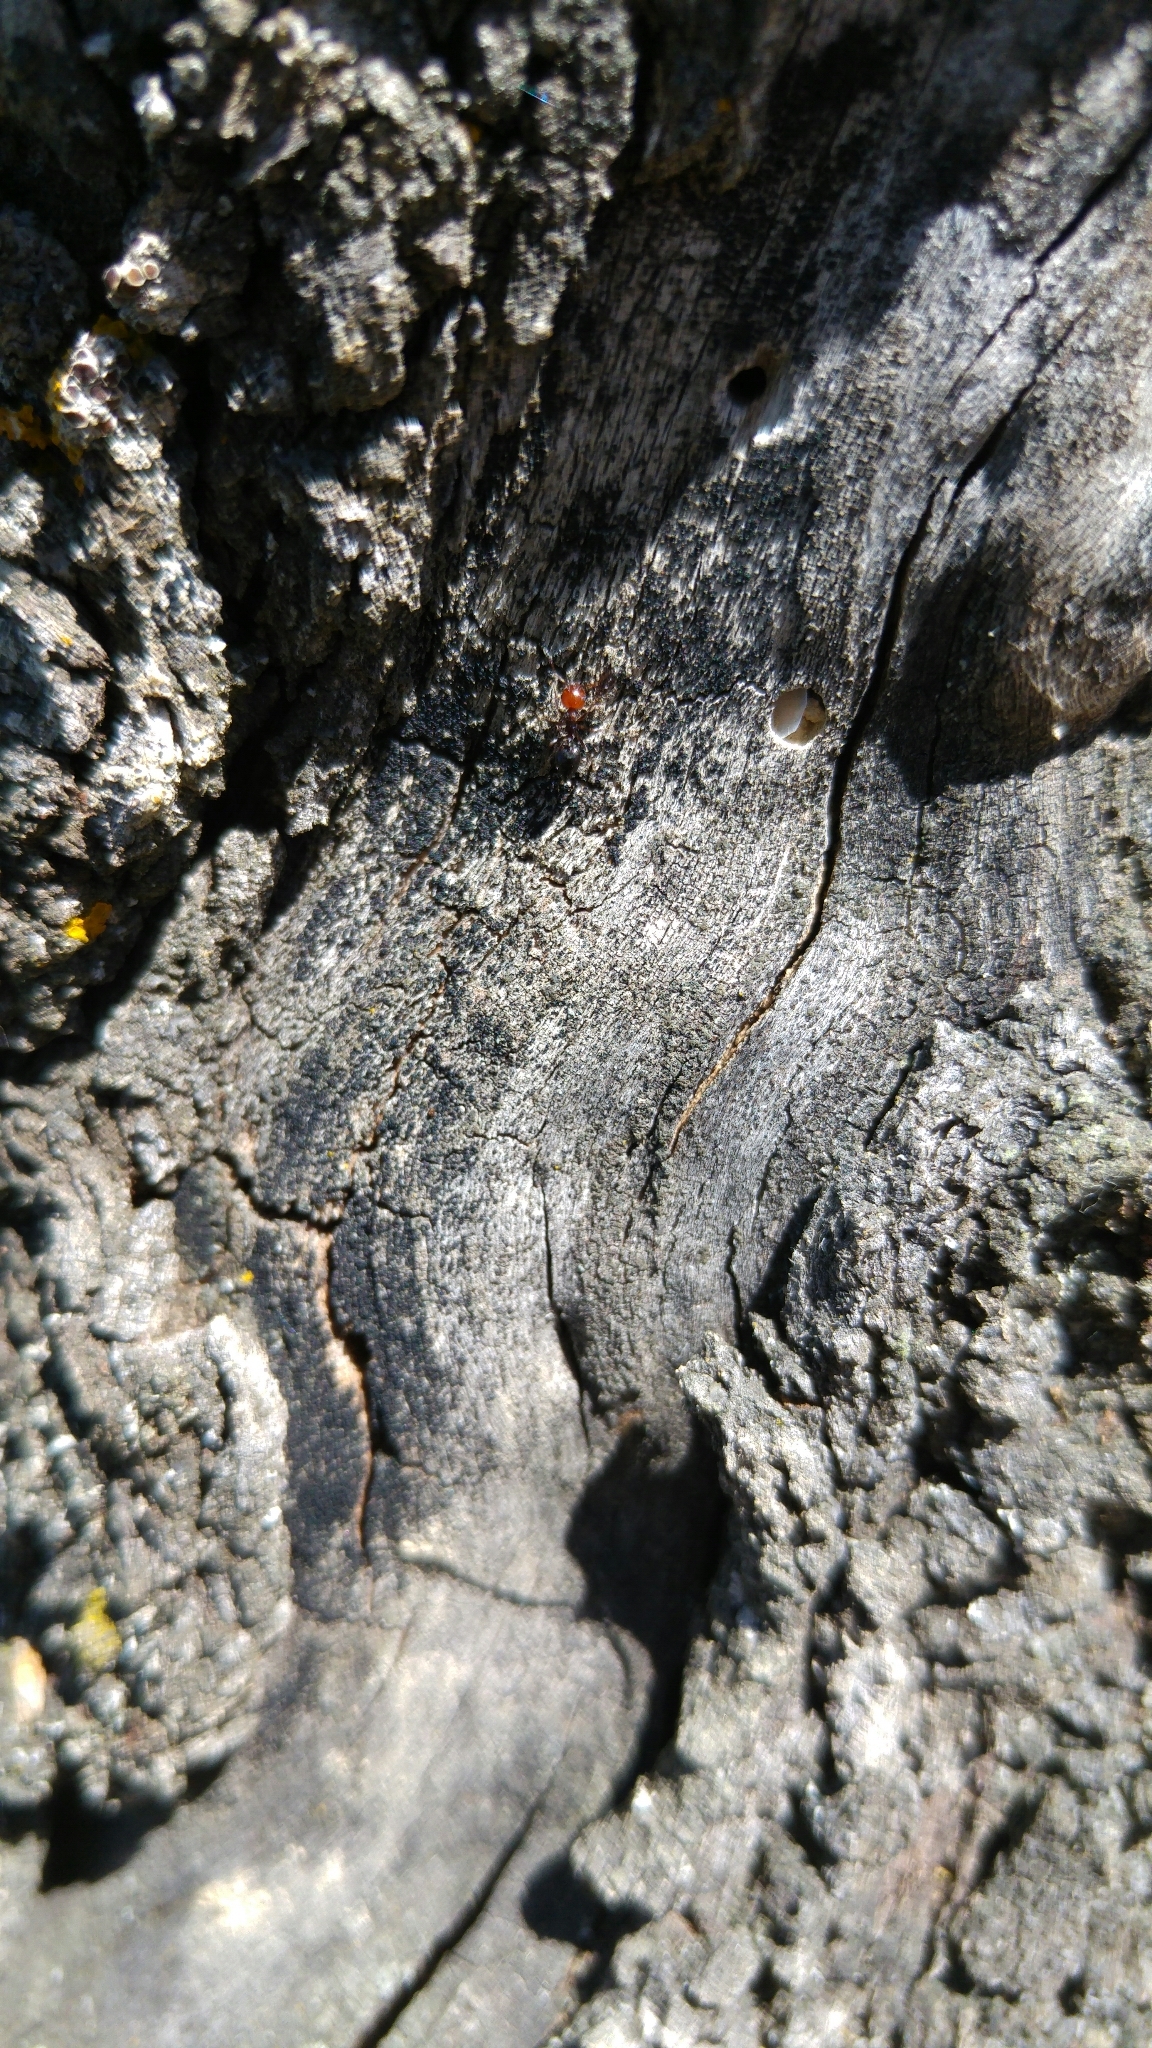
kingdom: Animalia
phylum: Arthropoda
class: Insecta
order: Hymenoptera
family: Formicidae
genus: Crematogaster
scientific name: Crematogaster scutellaris
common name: Fourmi du liège
